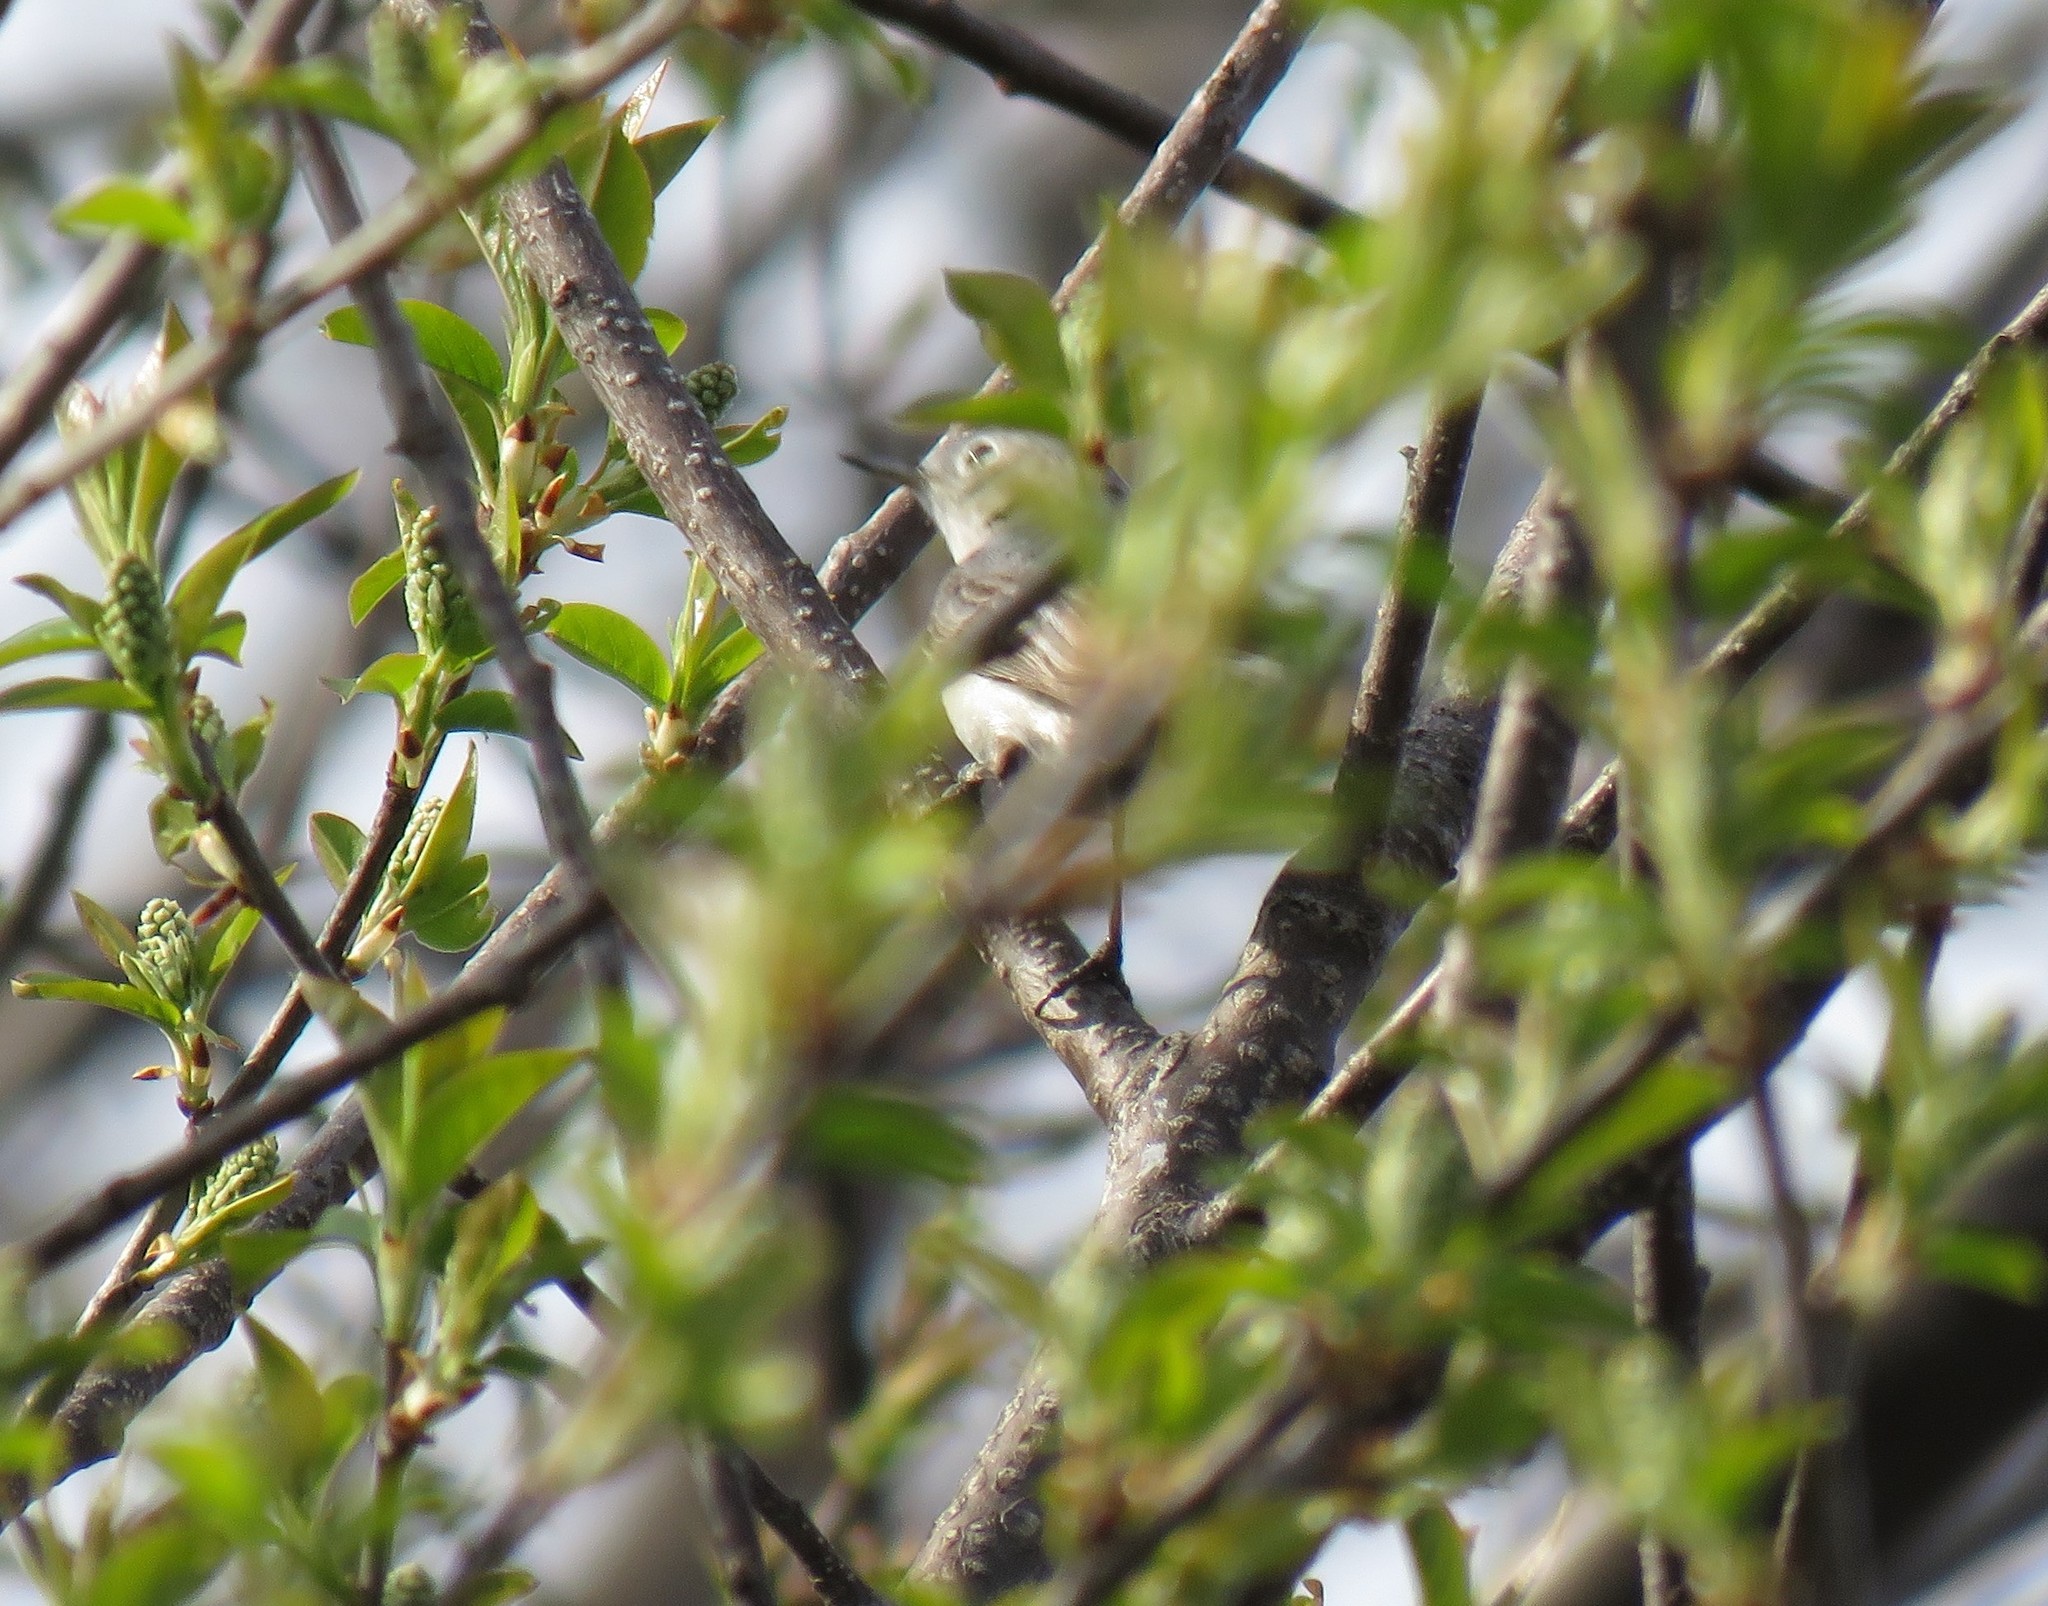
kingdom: Animalia
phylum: Chordata
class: Aves
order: Passeriformes
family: Polioptilidae
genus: Polioptila
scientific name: Polioptila caerulea
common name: Blue-gray gnatcatcher
